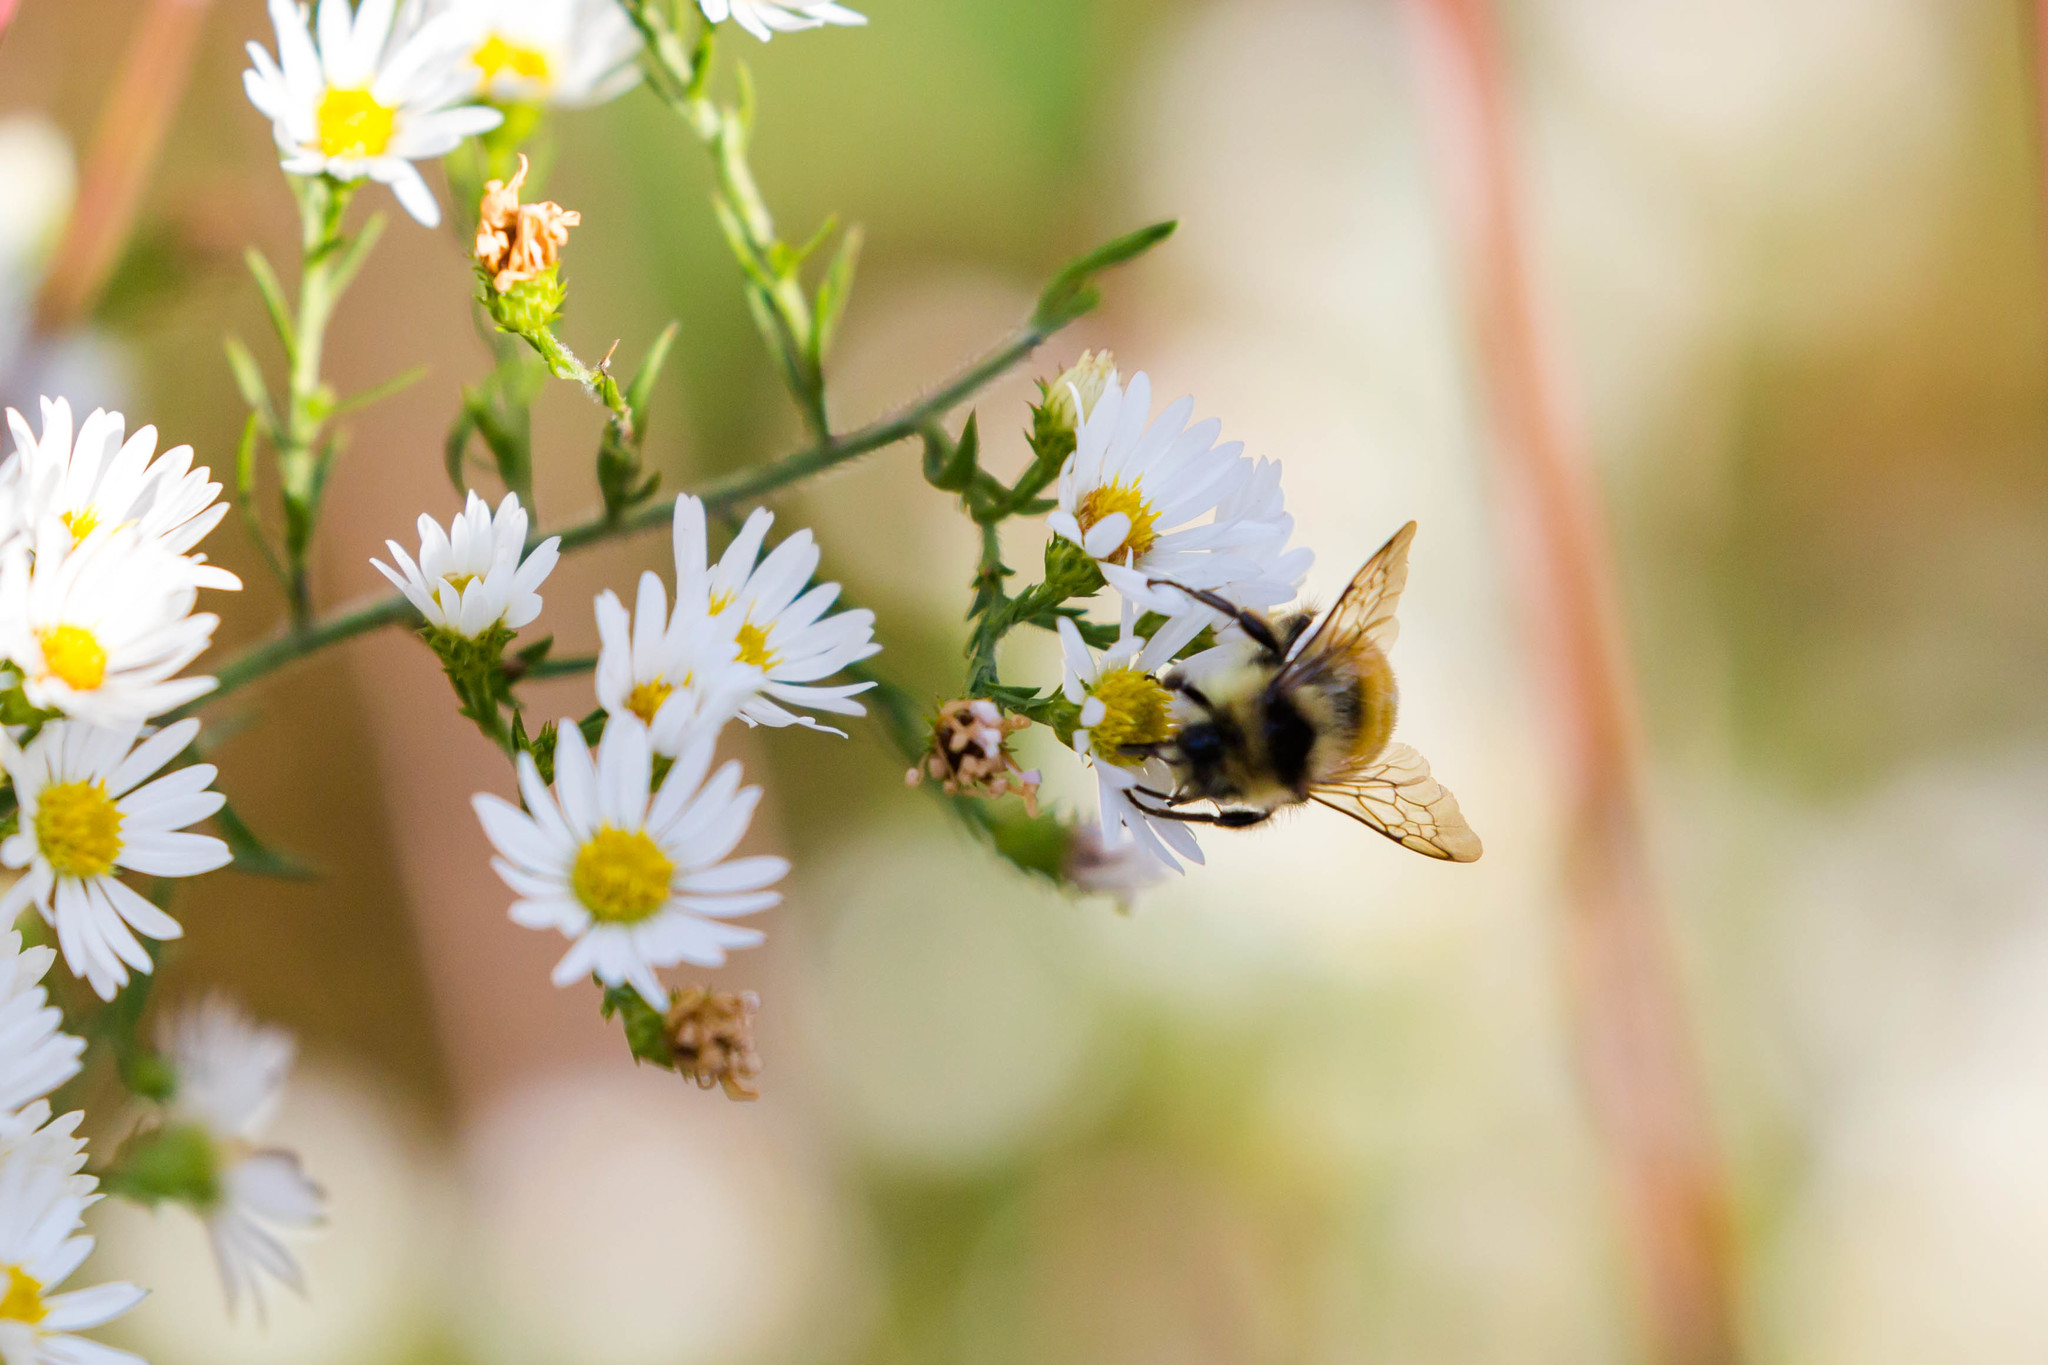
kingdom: Animalia
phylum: Arthropoda
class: Insecta
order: Hymenoptera
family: Apidae
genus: Bombus
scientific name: Bombus ternarius
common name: Tri-colored bumble bee
